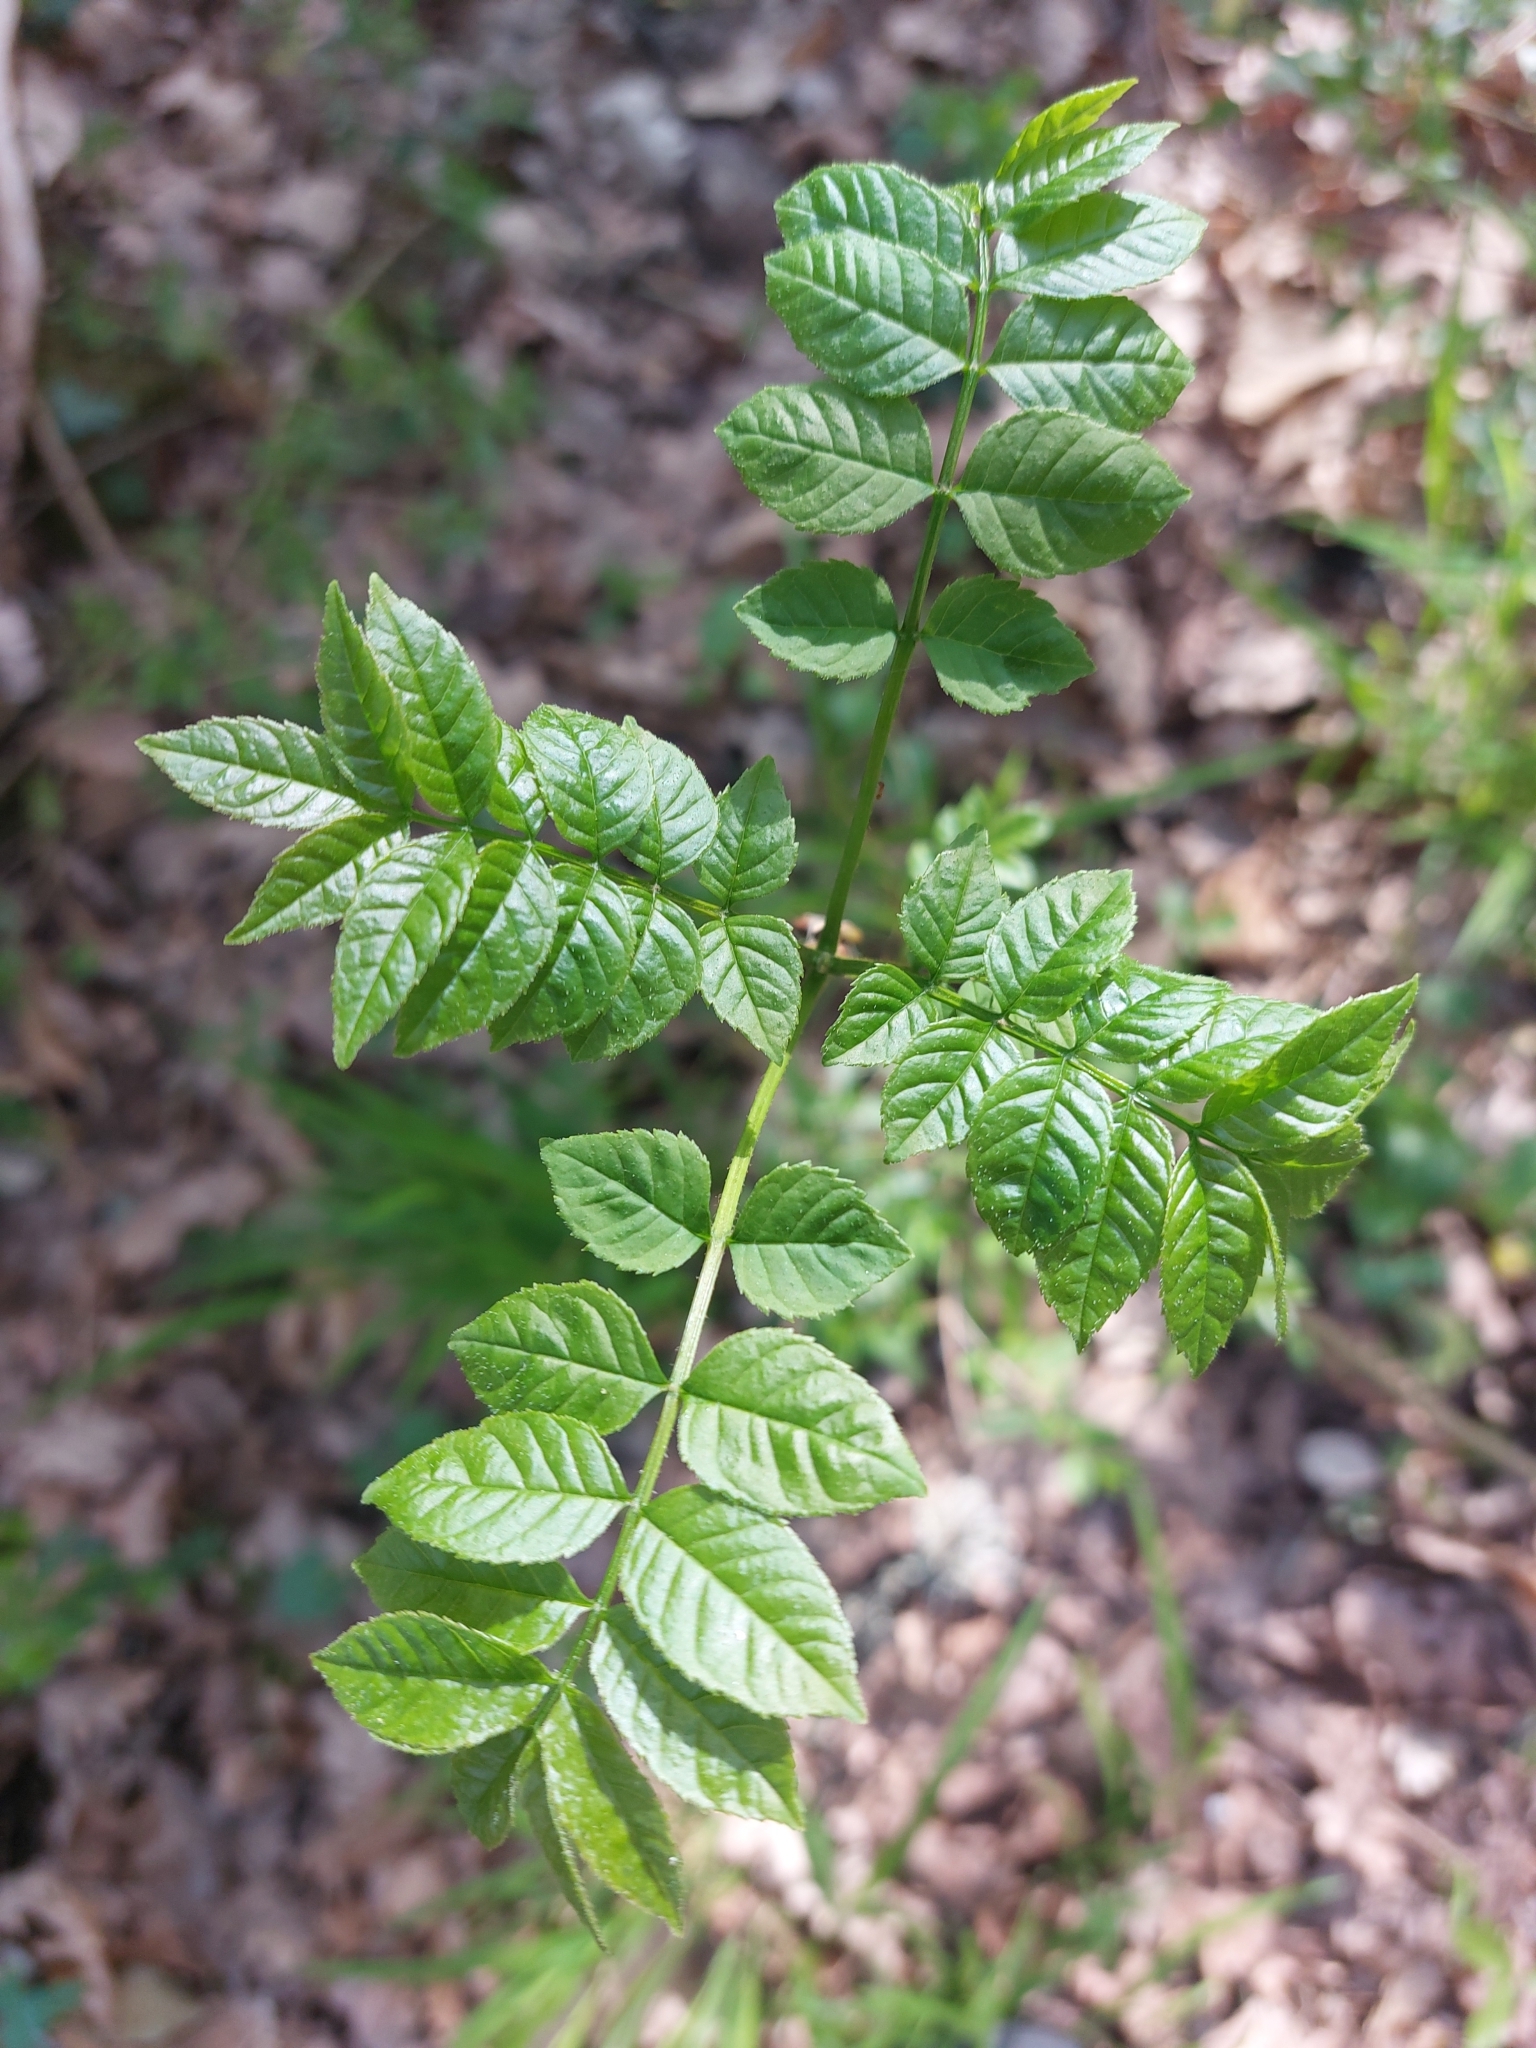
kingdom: Plantae
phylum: Tracheophyta
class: Magnoliopsida
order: Lamiales
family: Oleaceae
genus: Fraxinus
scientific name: Fraxinus excelsior
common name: European ash
